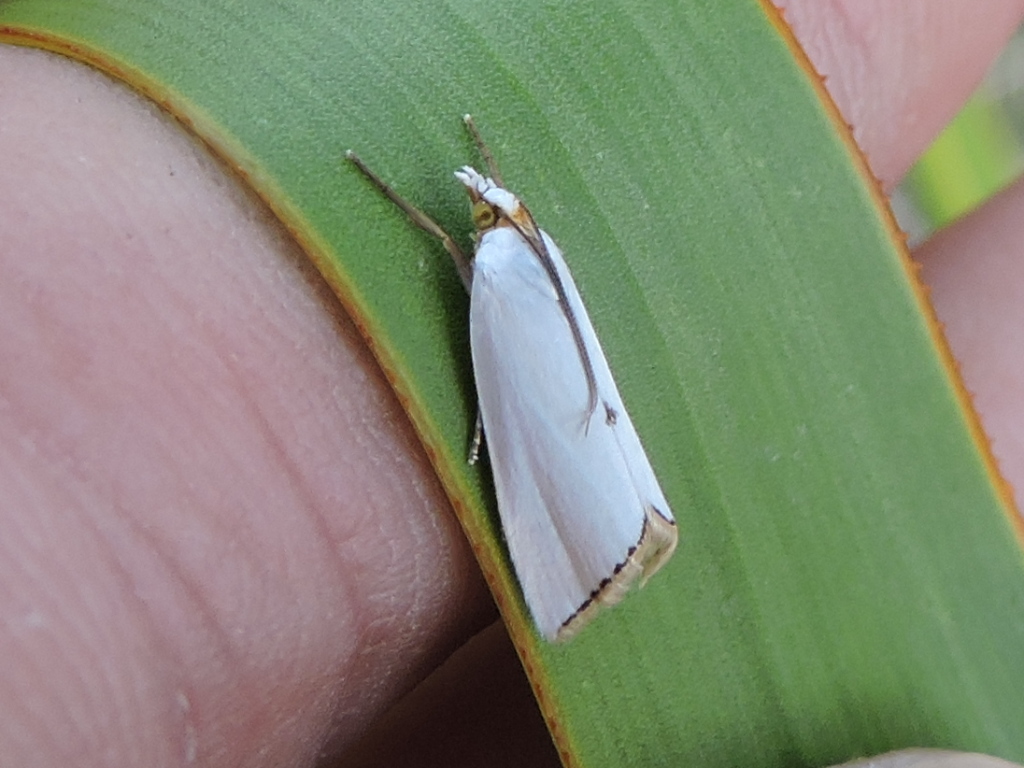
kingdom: Animalia
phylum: Arthropoda
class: Insecta
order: Lepidoptera
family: Crambidae
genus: Argyria
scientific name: Argyria nivalis
